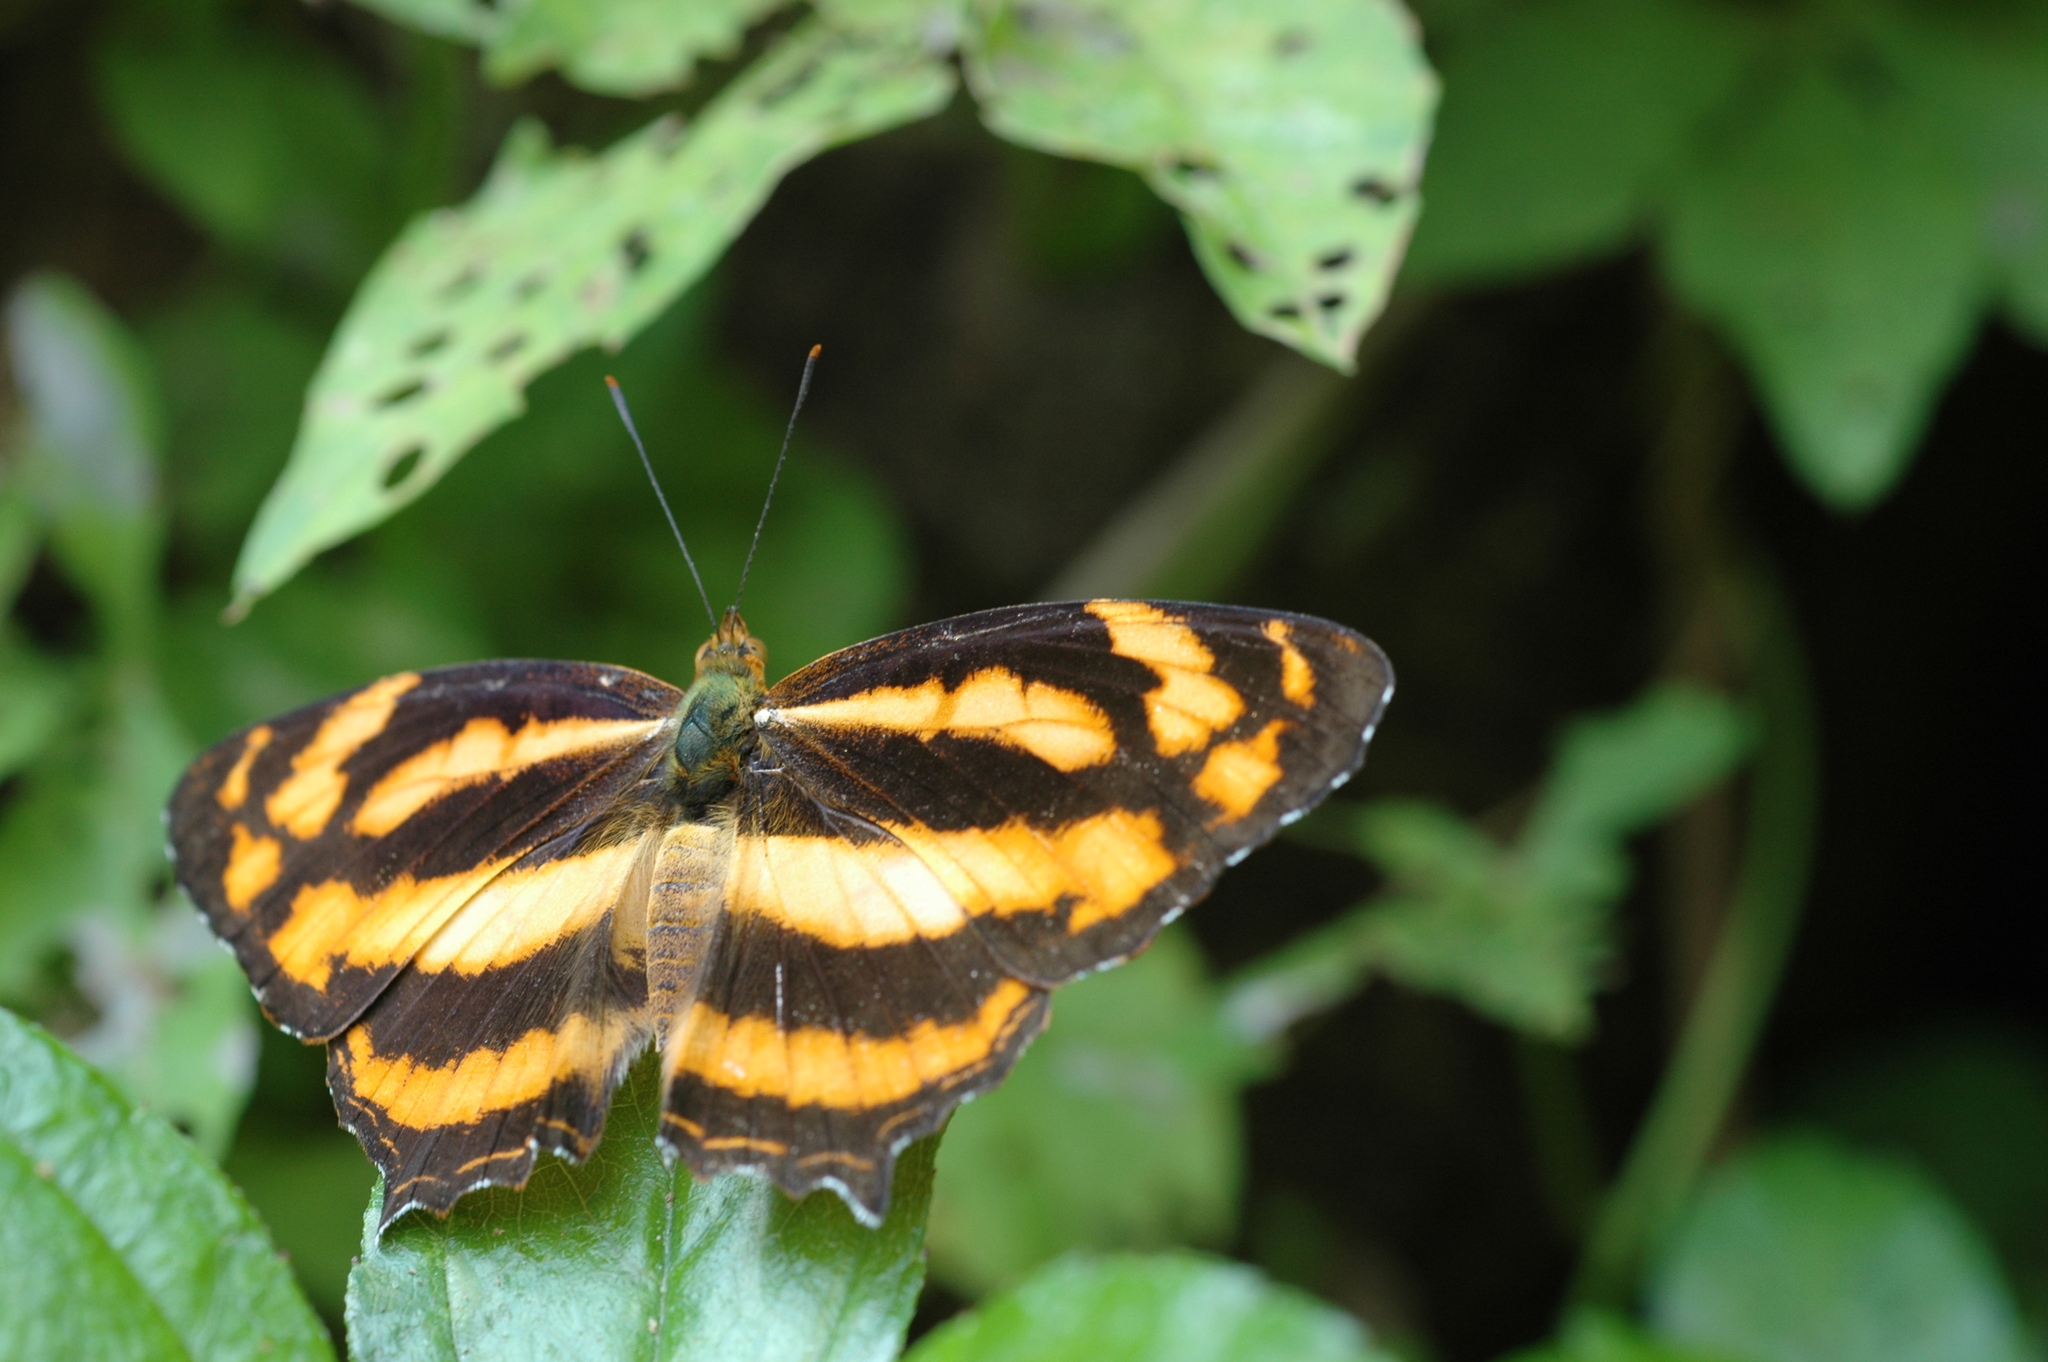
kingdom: Animalia
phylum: Arthropoda
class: Insecta
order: Lepidoptera
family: Nymphalidae
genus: Symbrenthia
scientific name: Symbrenthia hypselis
